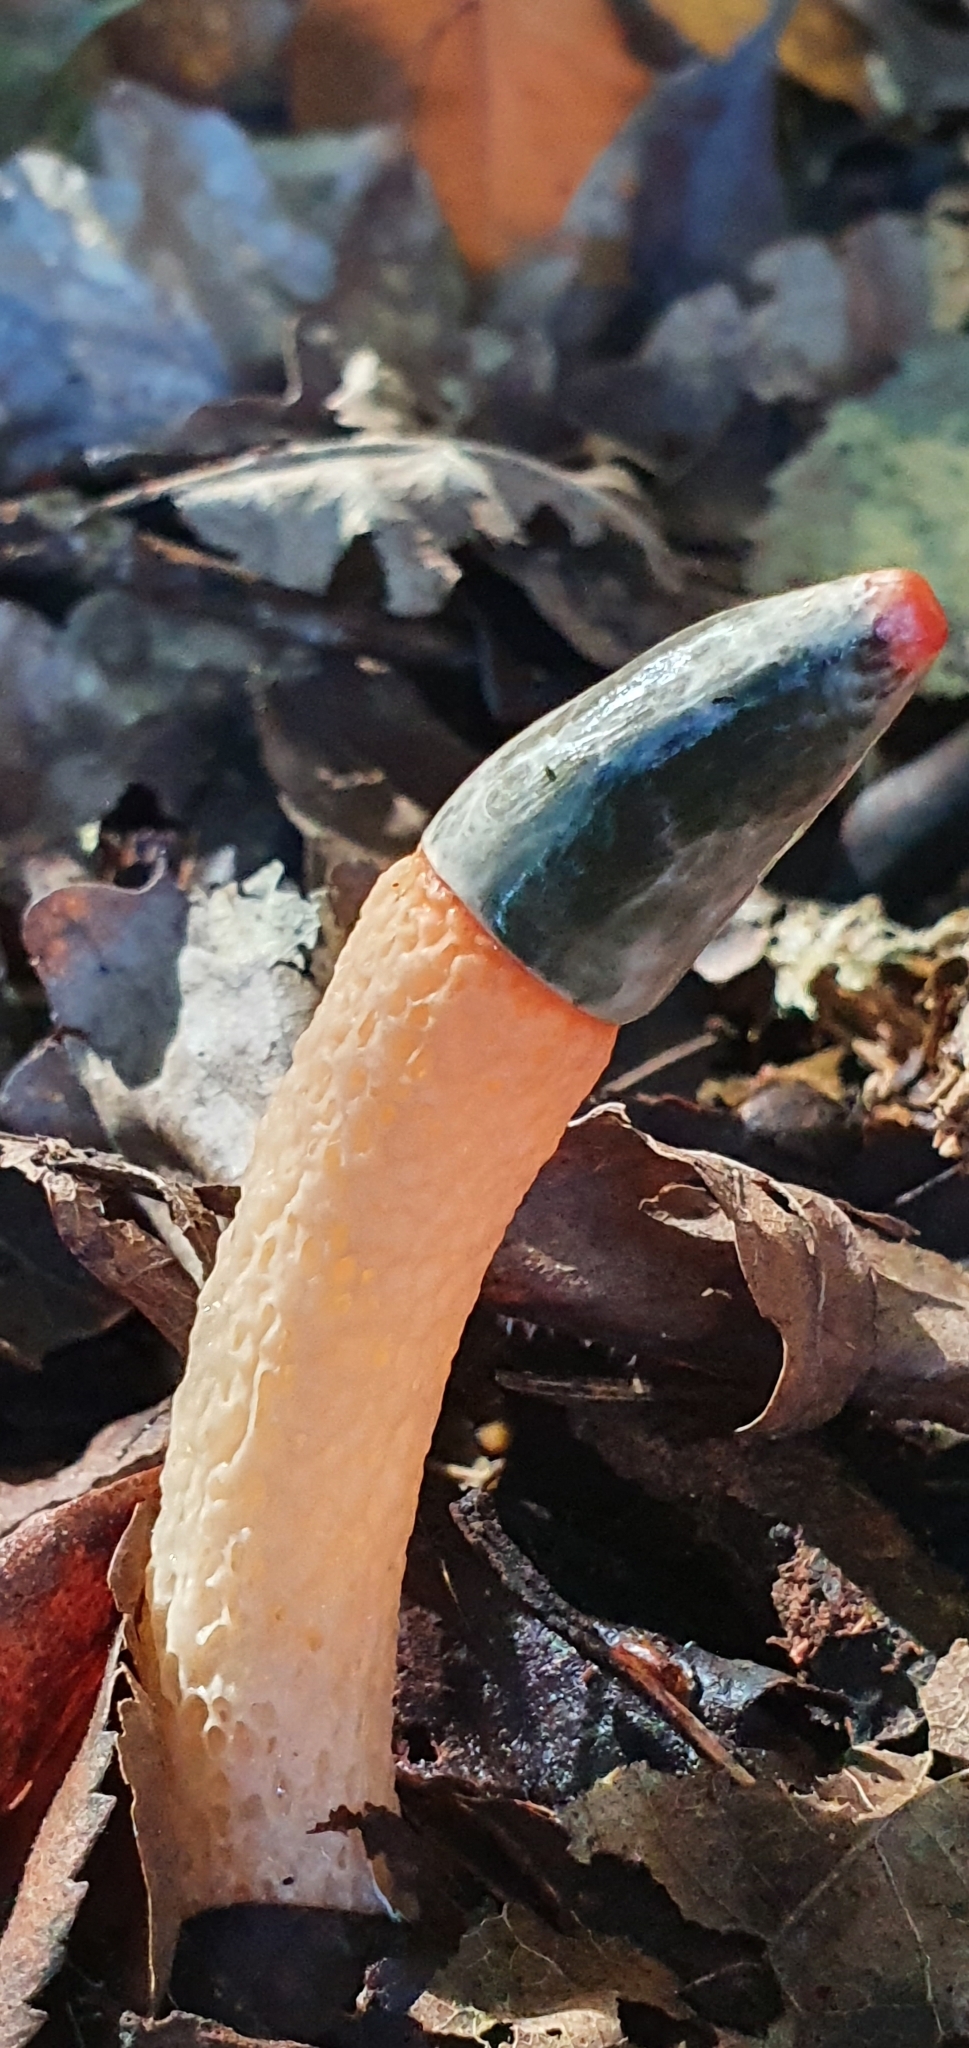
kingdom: Fungi
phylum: Basidiomycota
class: Agaricomycetes
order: Phallales
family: Phallaceae
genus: Mutinus
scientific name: Mutinus caninus
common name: Dog stinkhorn
